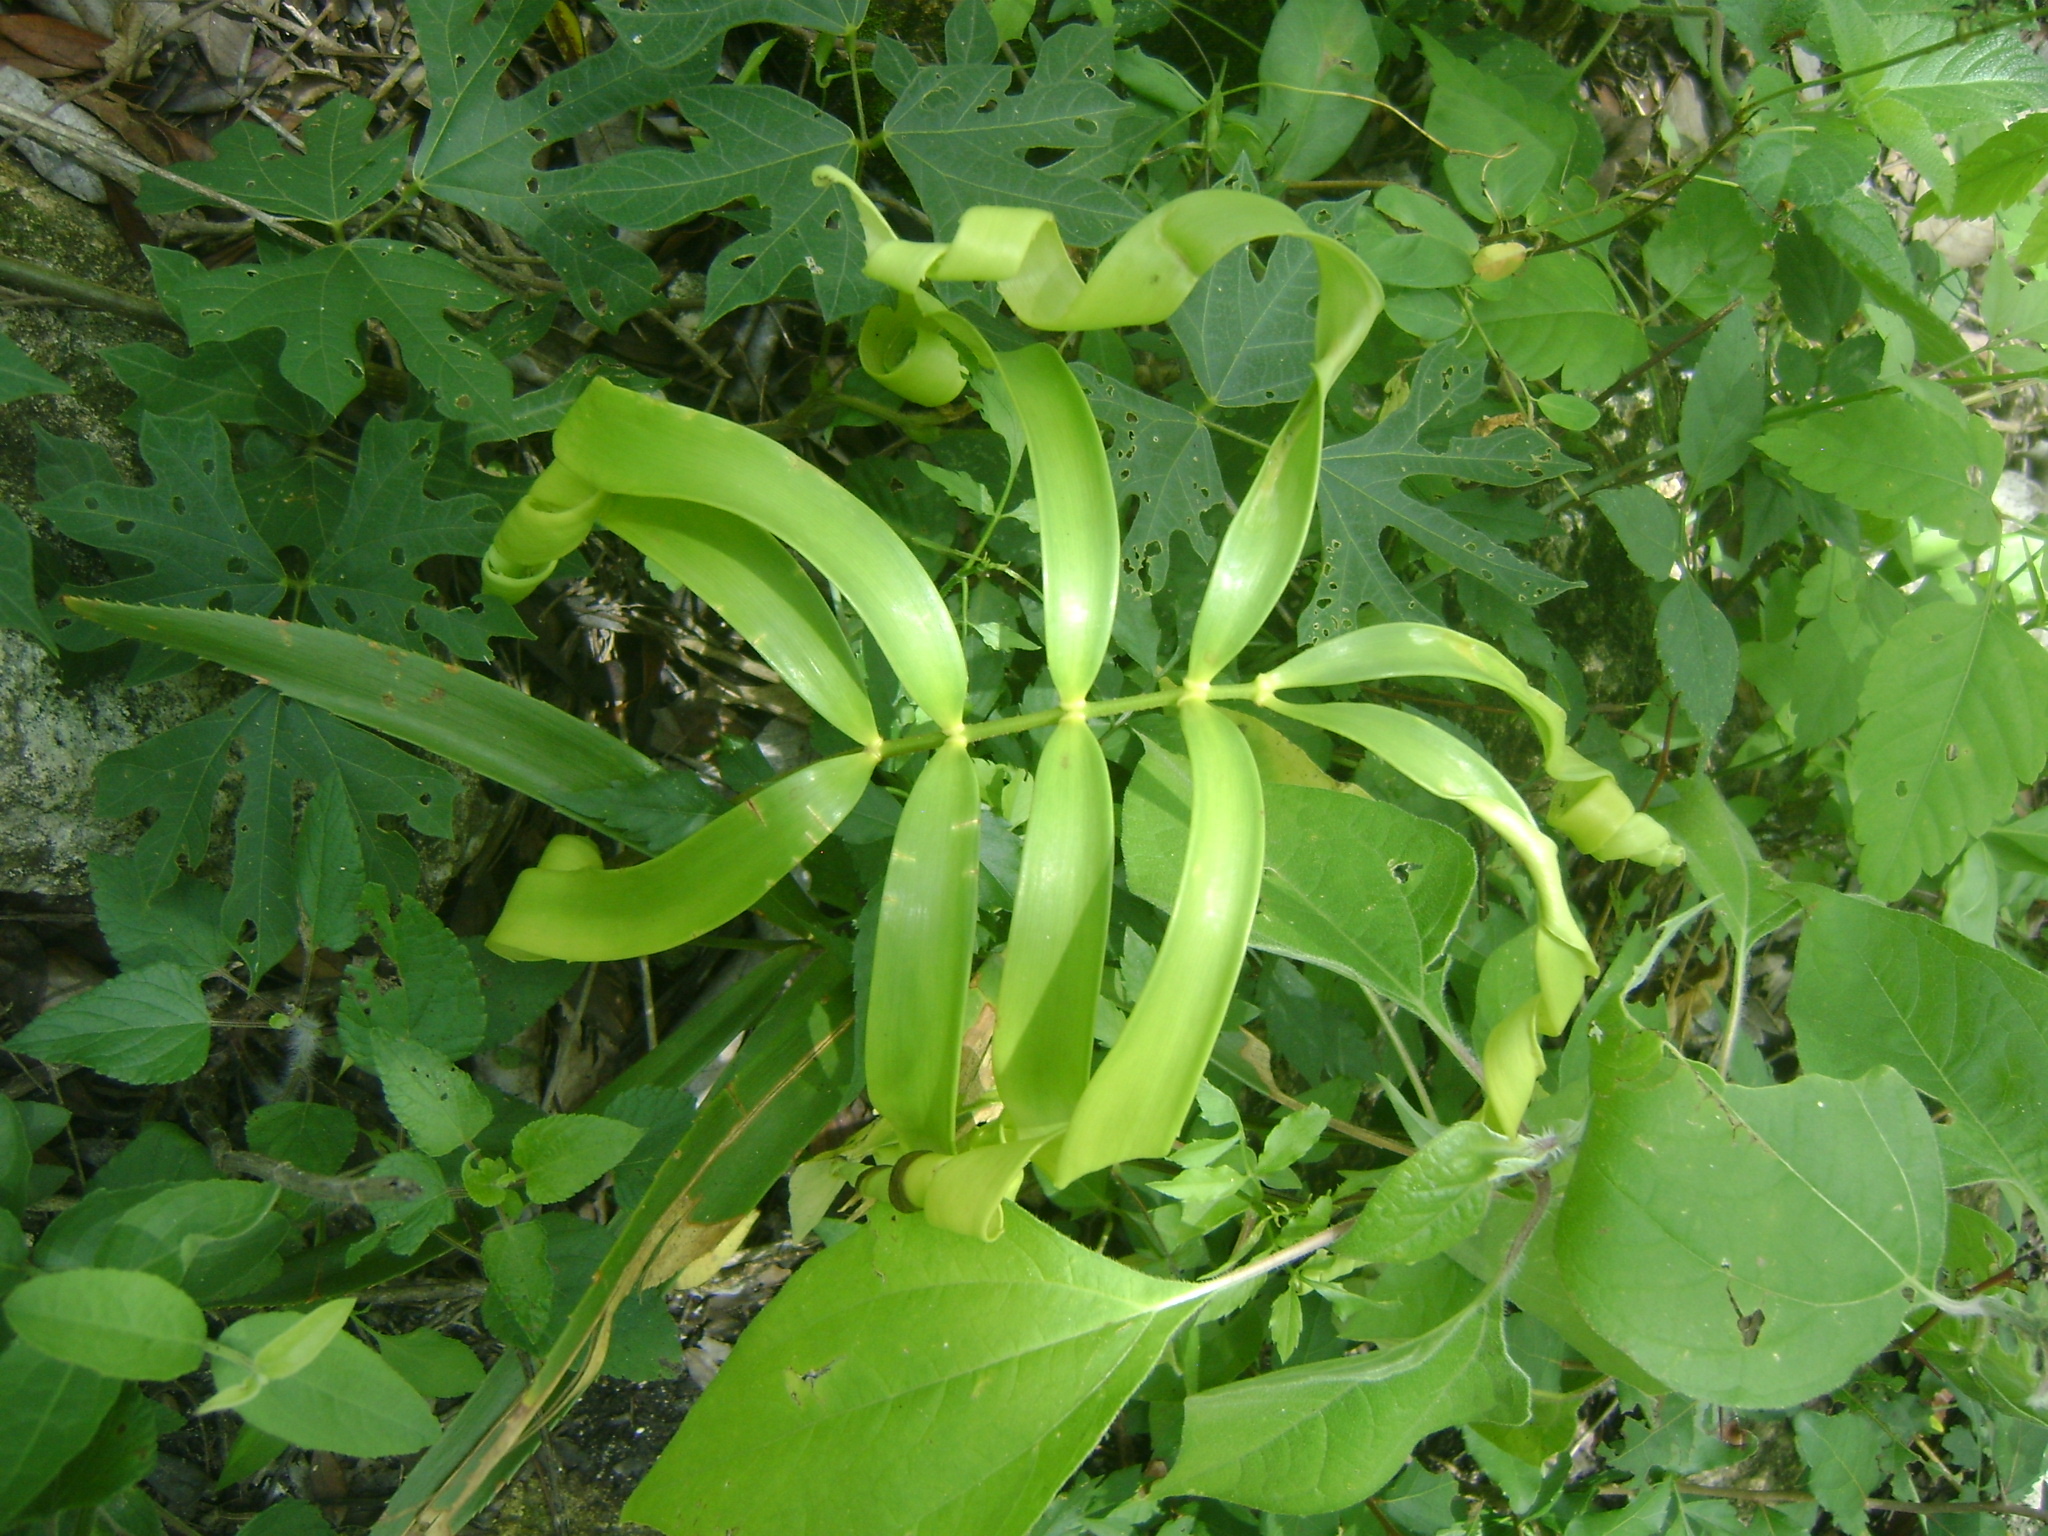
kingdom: Plantae
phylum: Tracheophyta
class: Cycadopsida
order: Cycadales
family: Zamiaceae
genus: Zamia
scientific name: Zamia loddigesii
